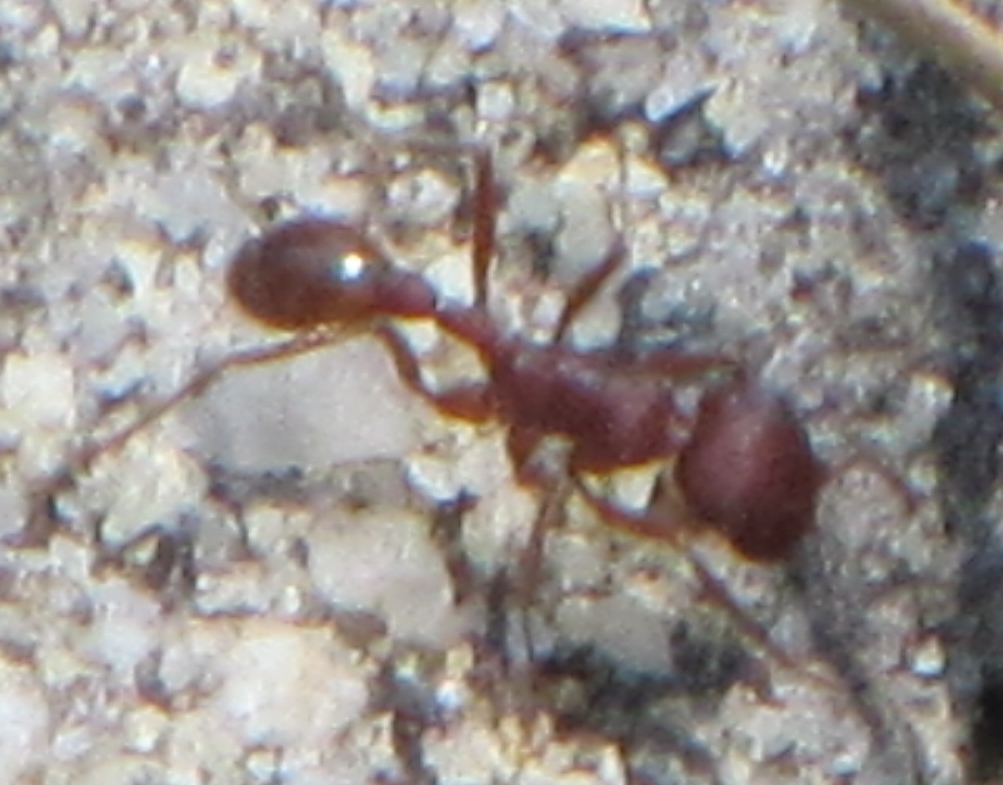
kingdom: Animalia
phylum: Arthropoda
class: Insecta
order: Hymenoptera
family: Formicidae
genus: Pogonomyrmex
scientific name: Pogonomyrmex badius
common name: Florida harvester ant
